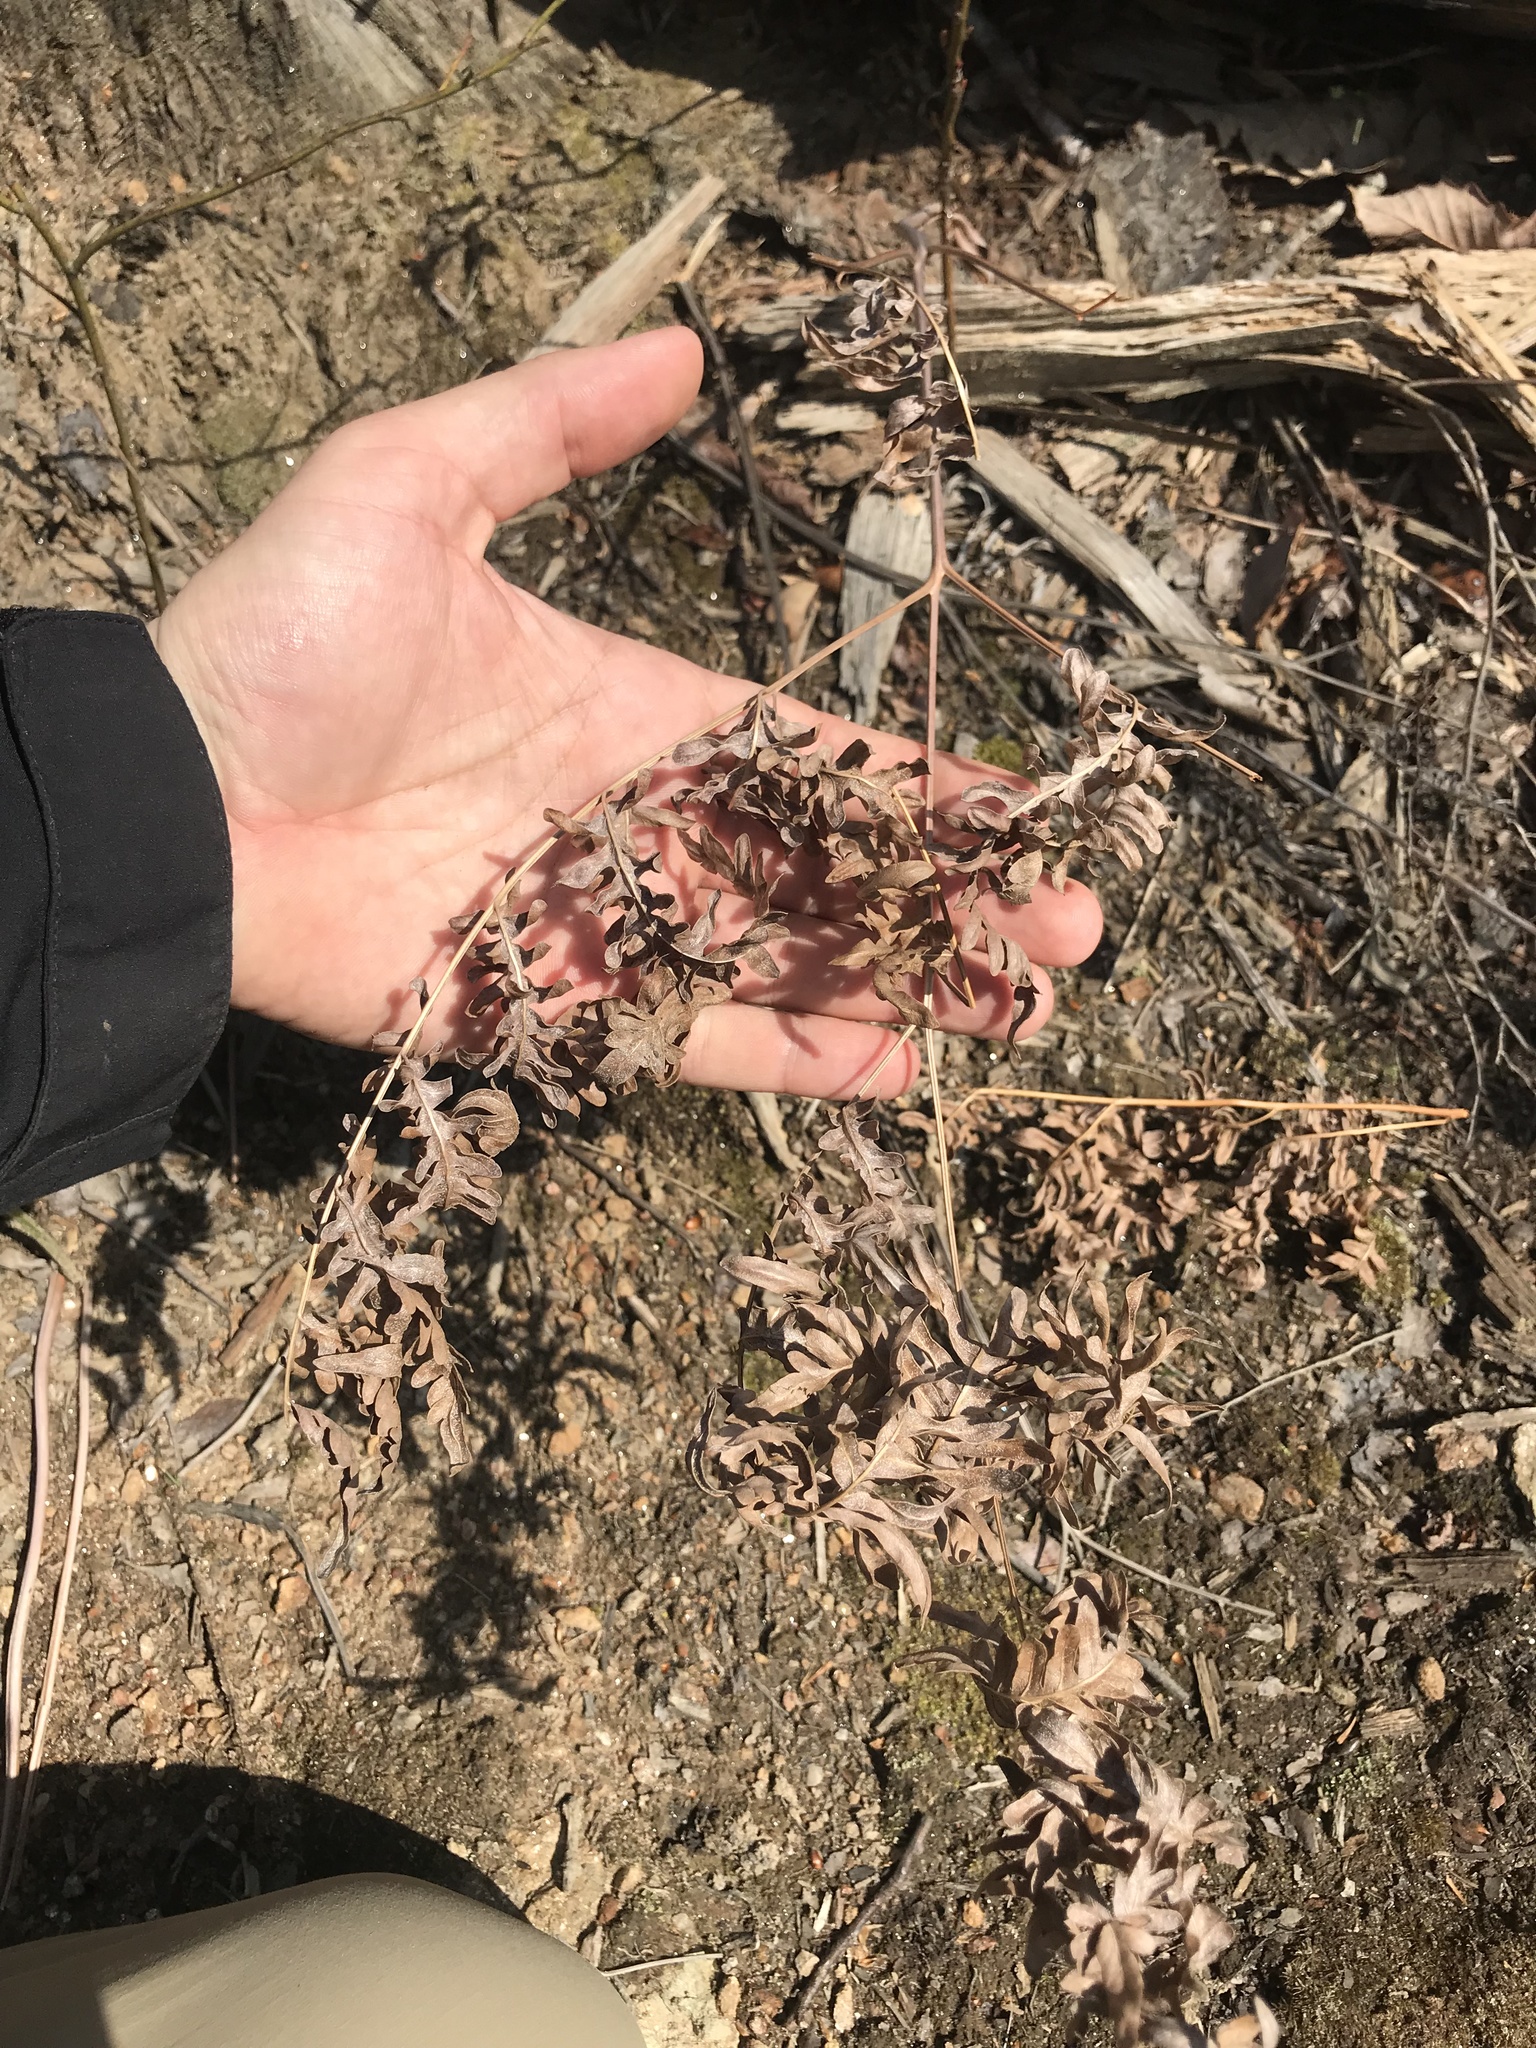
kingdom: Plantae
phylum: Tracheophyta
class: Polypodiopsida
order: Polypodiales
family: Dennstaedtiaceae
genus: Pteridium
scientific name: Pteridium aquilinum
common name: Bracken
